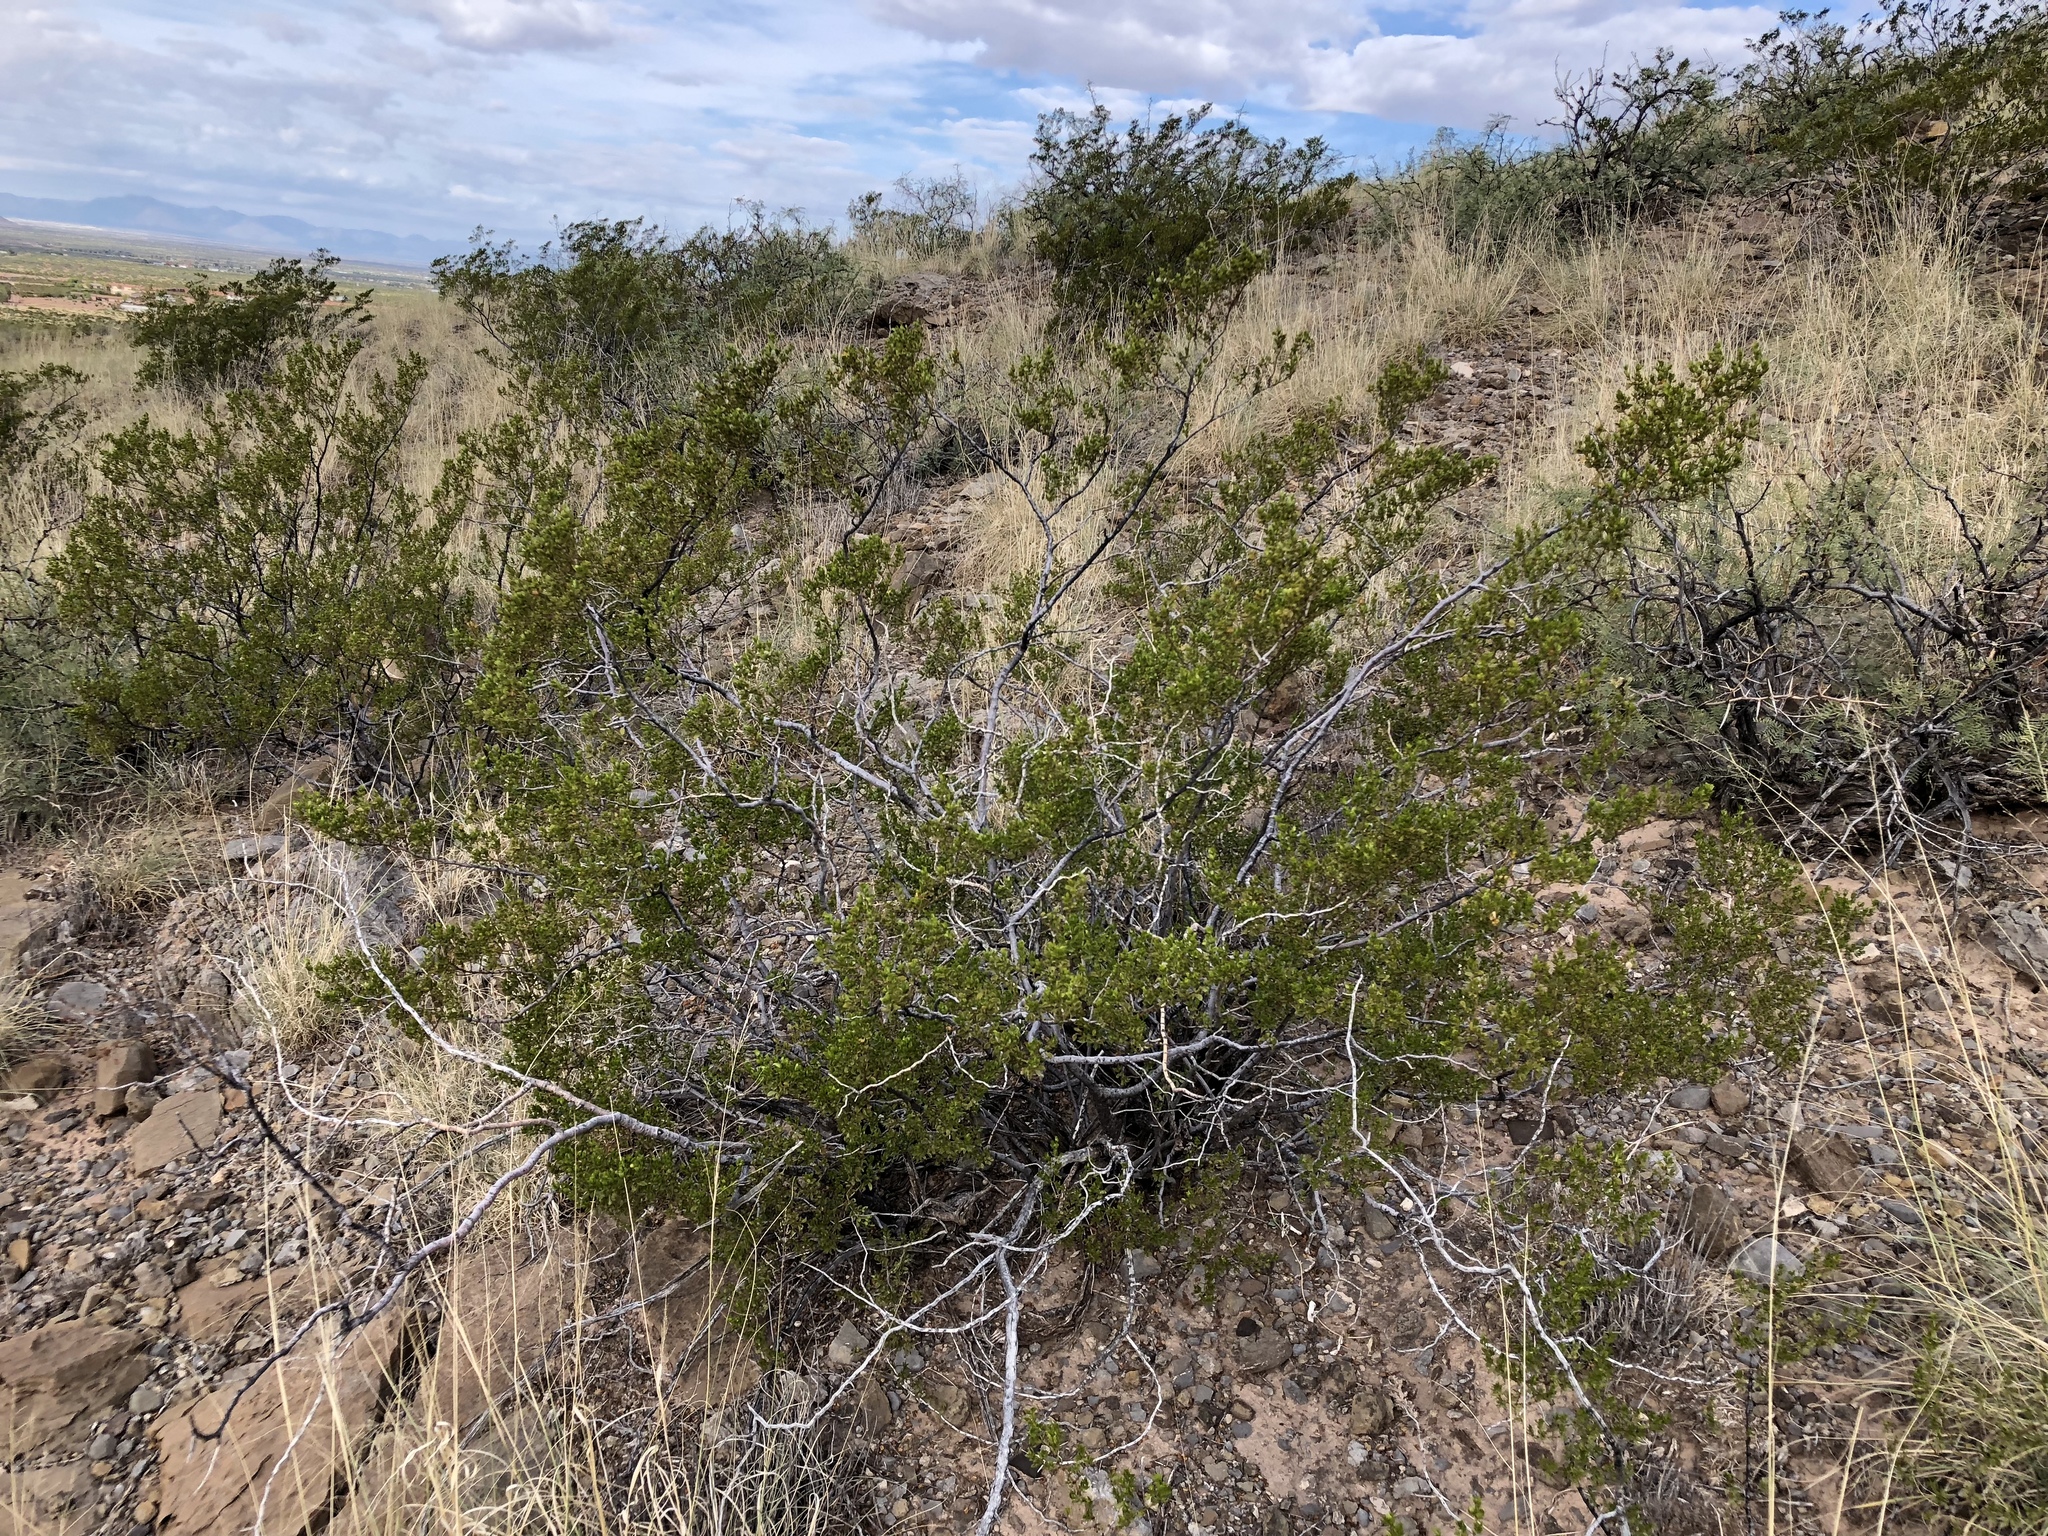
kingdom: Plantae
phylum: Tracheophyta
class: Magnoliopsida
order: Zygophyllales
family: Zygophyllaceae
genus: Larrea
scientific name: Larrea tridentata
